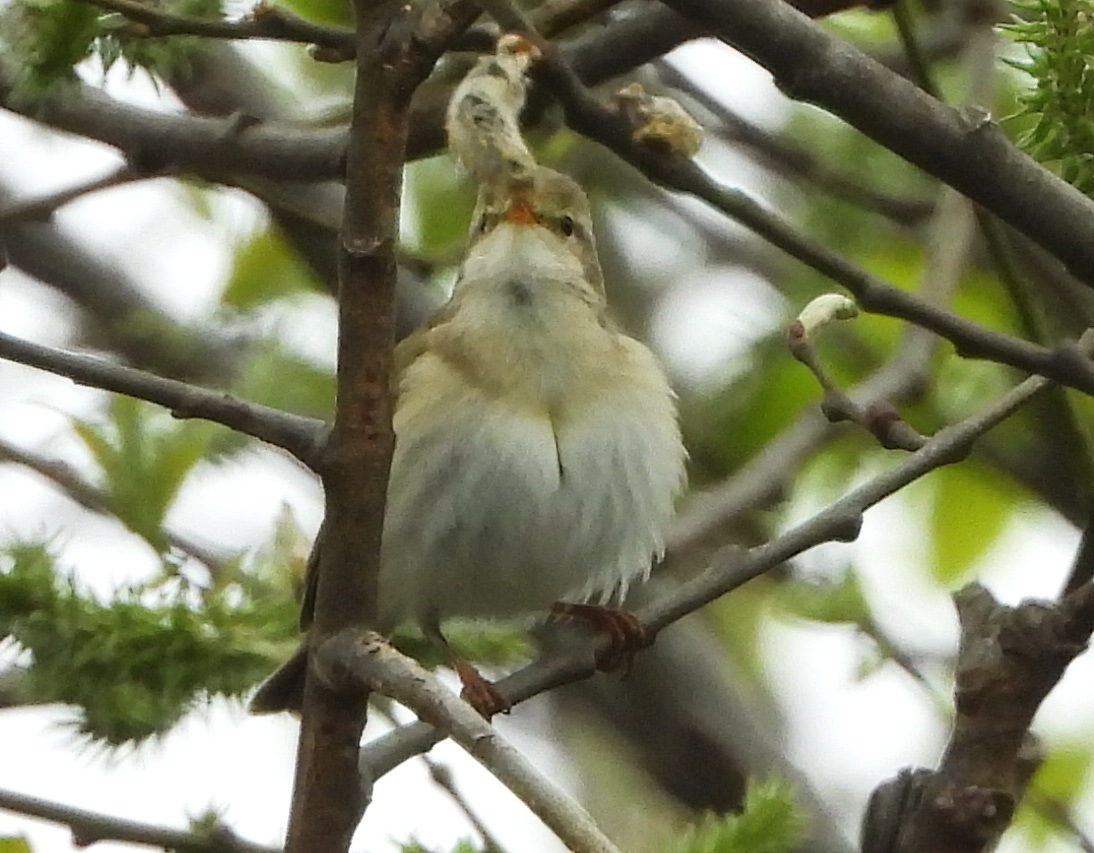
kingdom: Animalia
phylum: Chordata
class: Aves
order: Passeriformes
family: Phylloscopidae
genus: Phylloscopus
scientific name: Phylloscopus trochilus
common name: Willow warbler
